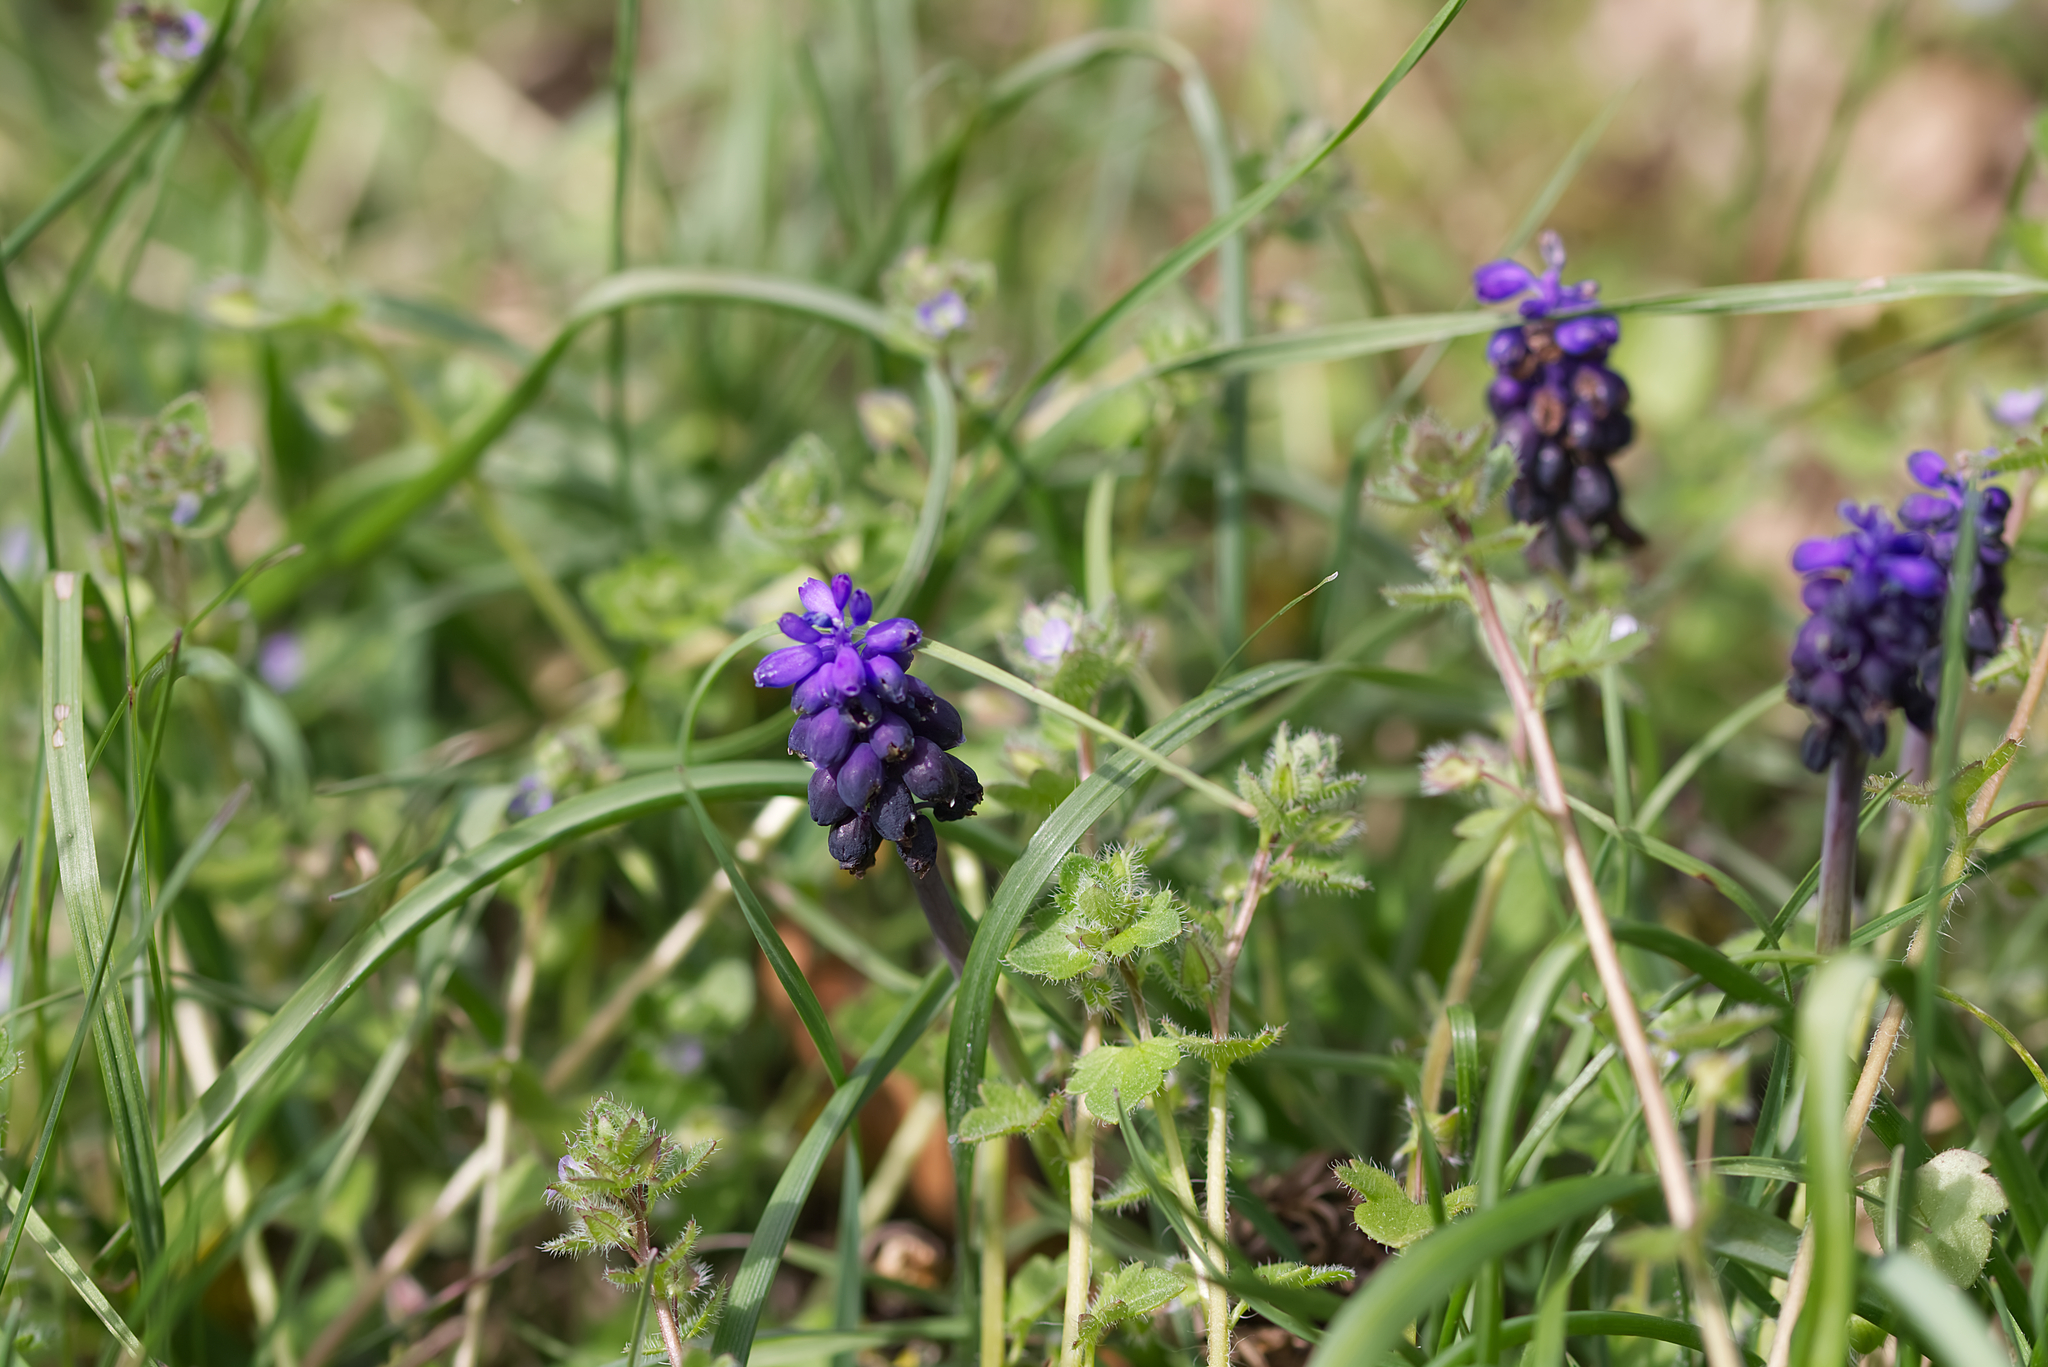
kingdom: Plantae
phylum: Tracheophyta
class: Liliopsida
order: Asparagales
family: Asparagaceae
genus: Muscari
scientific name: Muscari neglectum
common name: Grape-hyacinth
